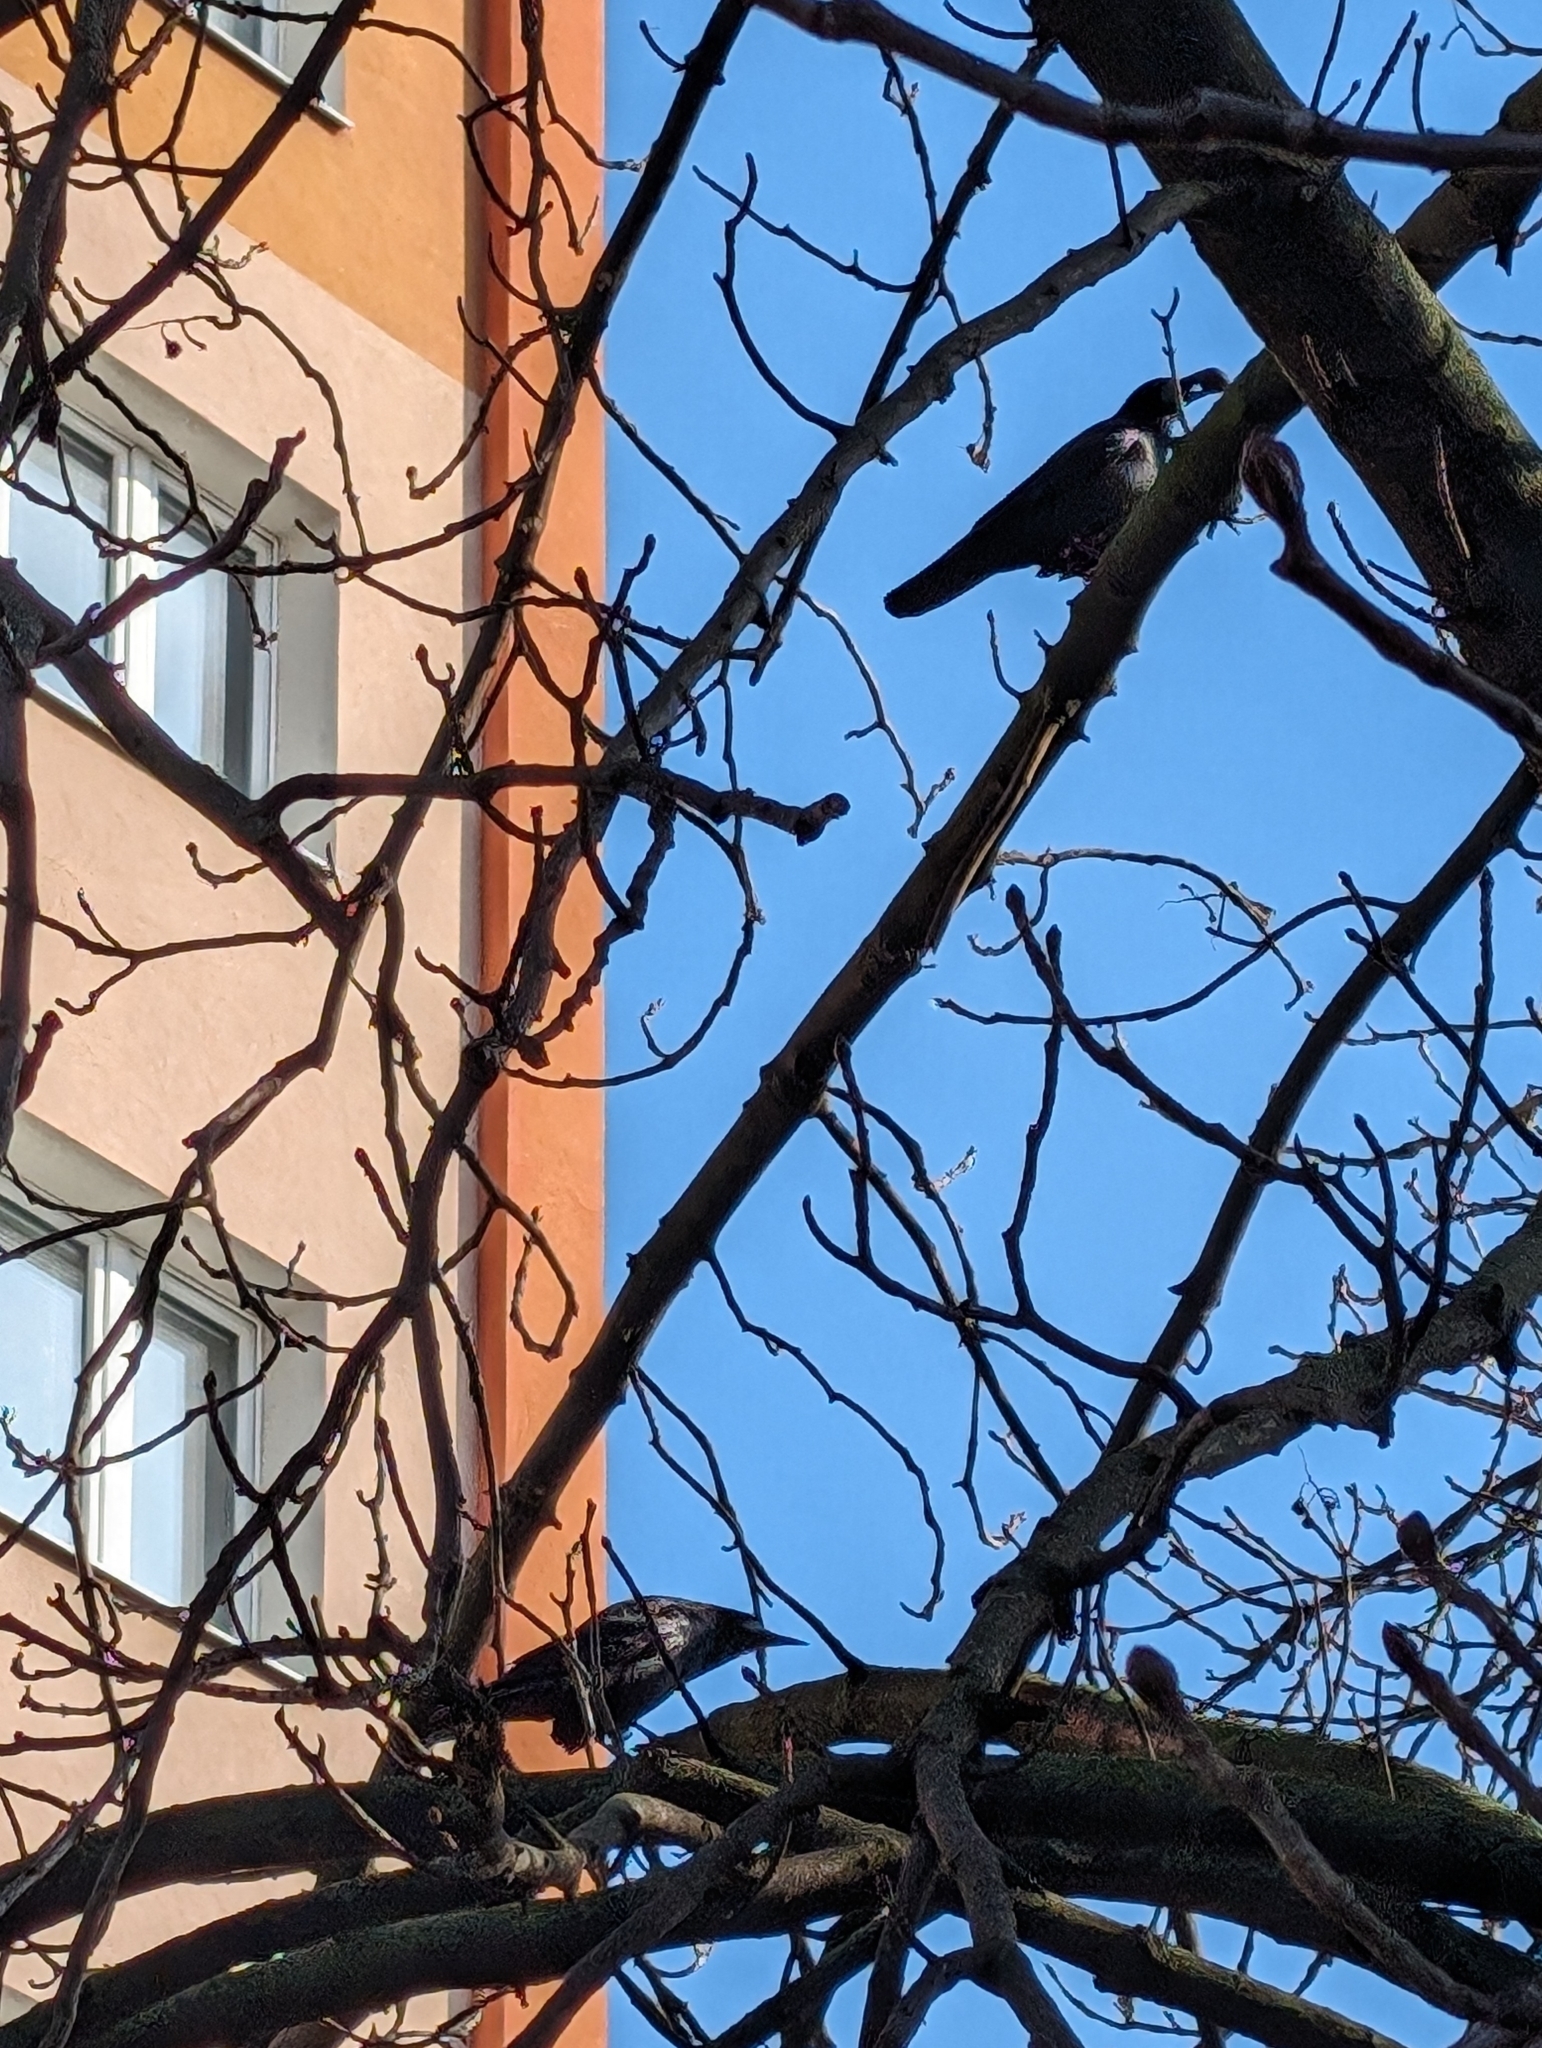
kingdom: Animalia
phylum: Chordata
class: Aves
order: Passeriformes
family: Corvidae
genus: Corvus
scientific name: Corvus frugilegus
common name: Rook
